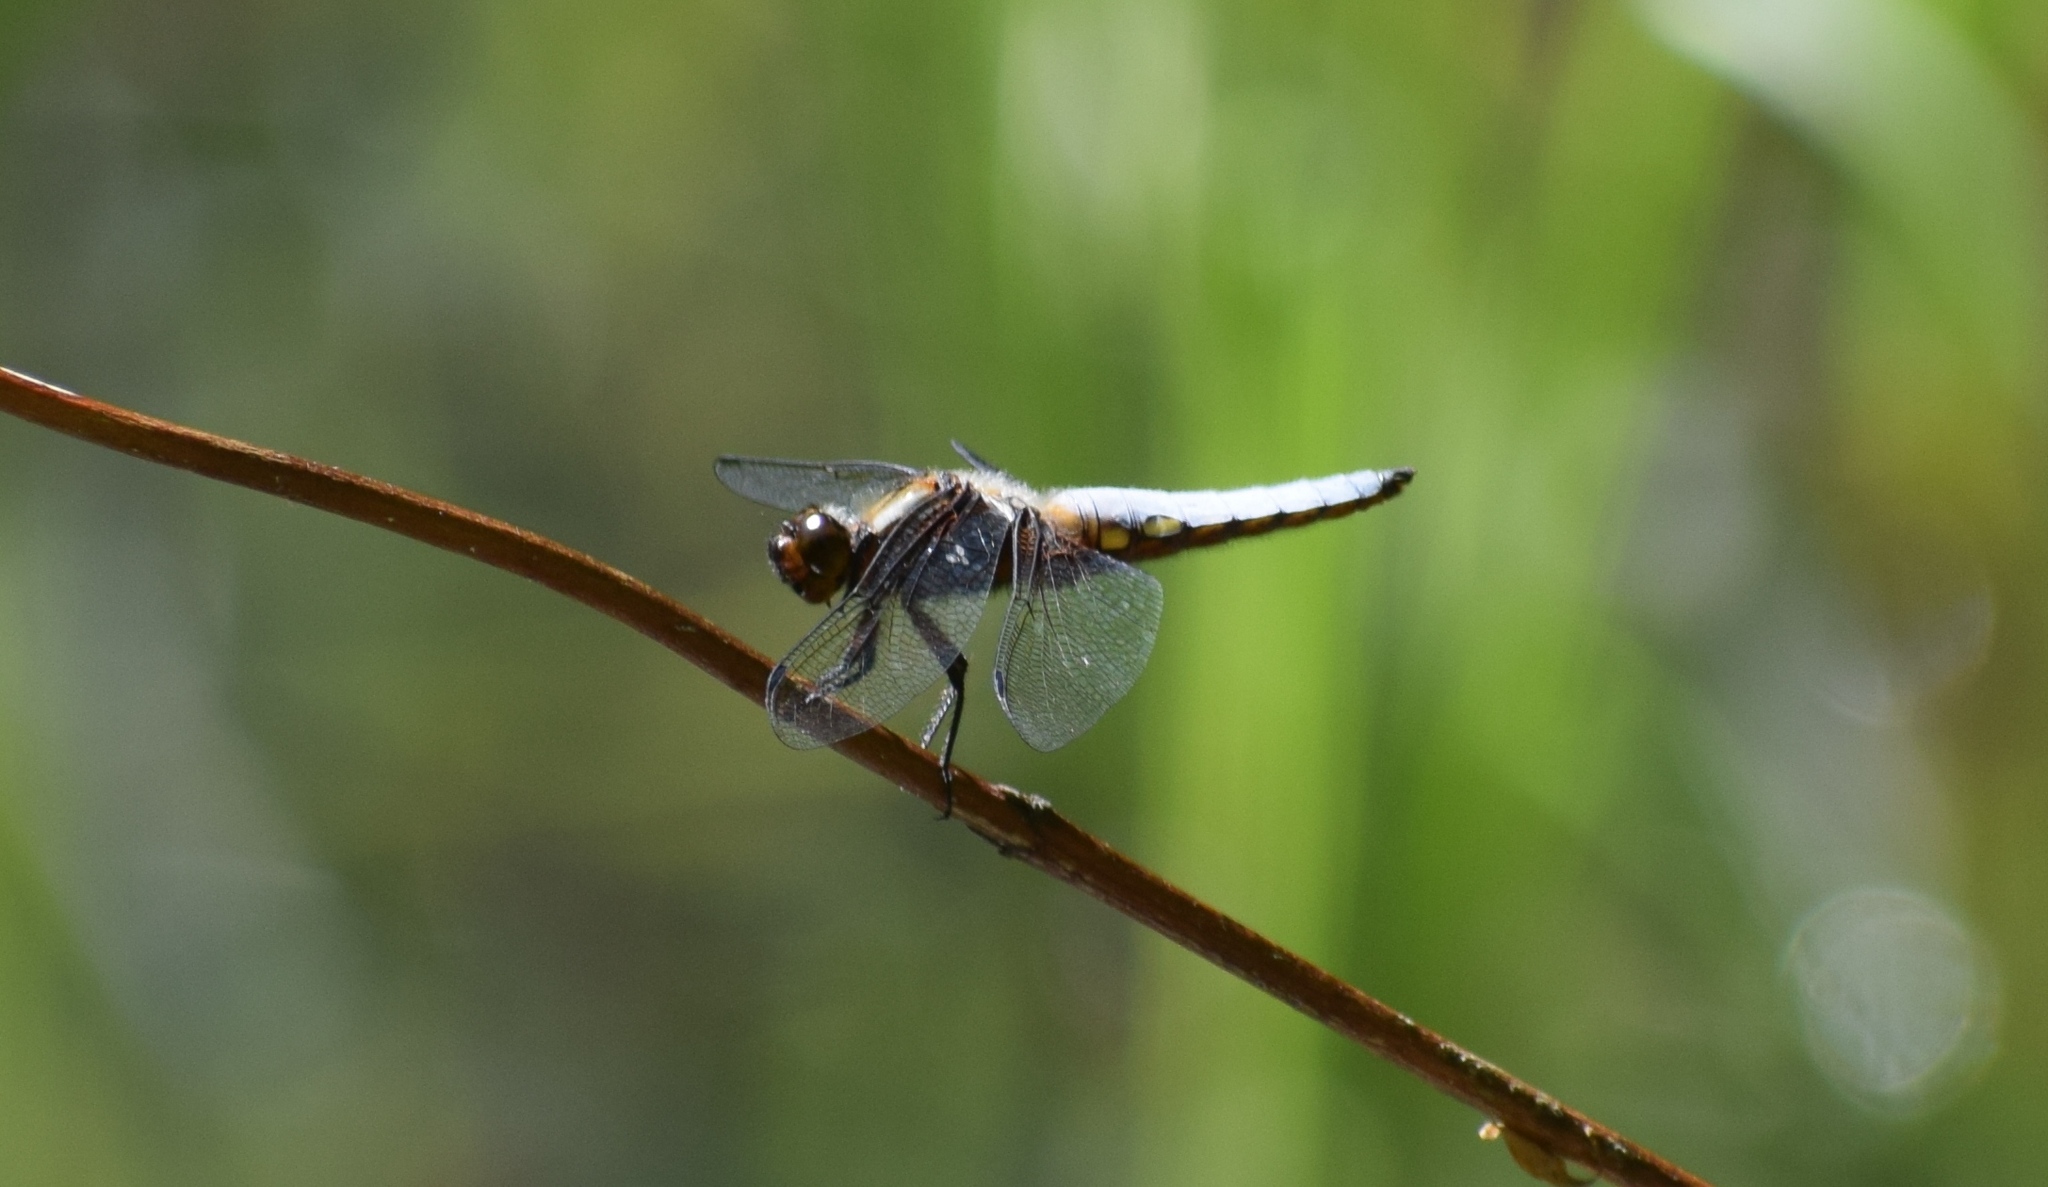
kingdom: Animalia
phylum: Arthropoda
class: Insecta
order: Odonata
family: Libellulidae
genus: Libellula
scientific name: Libellula depressa
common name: Broad-bodied chaser
